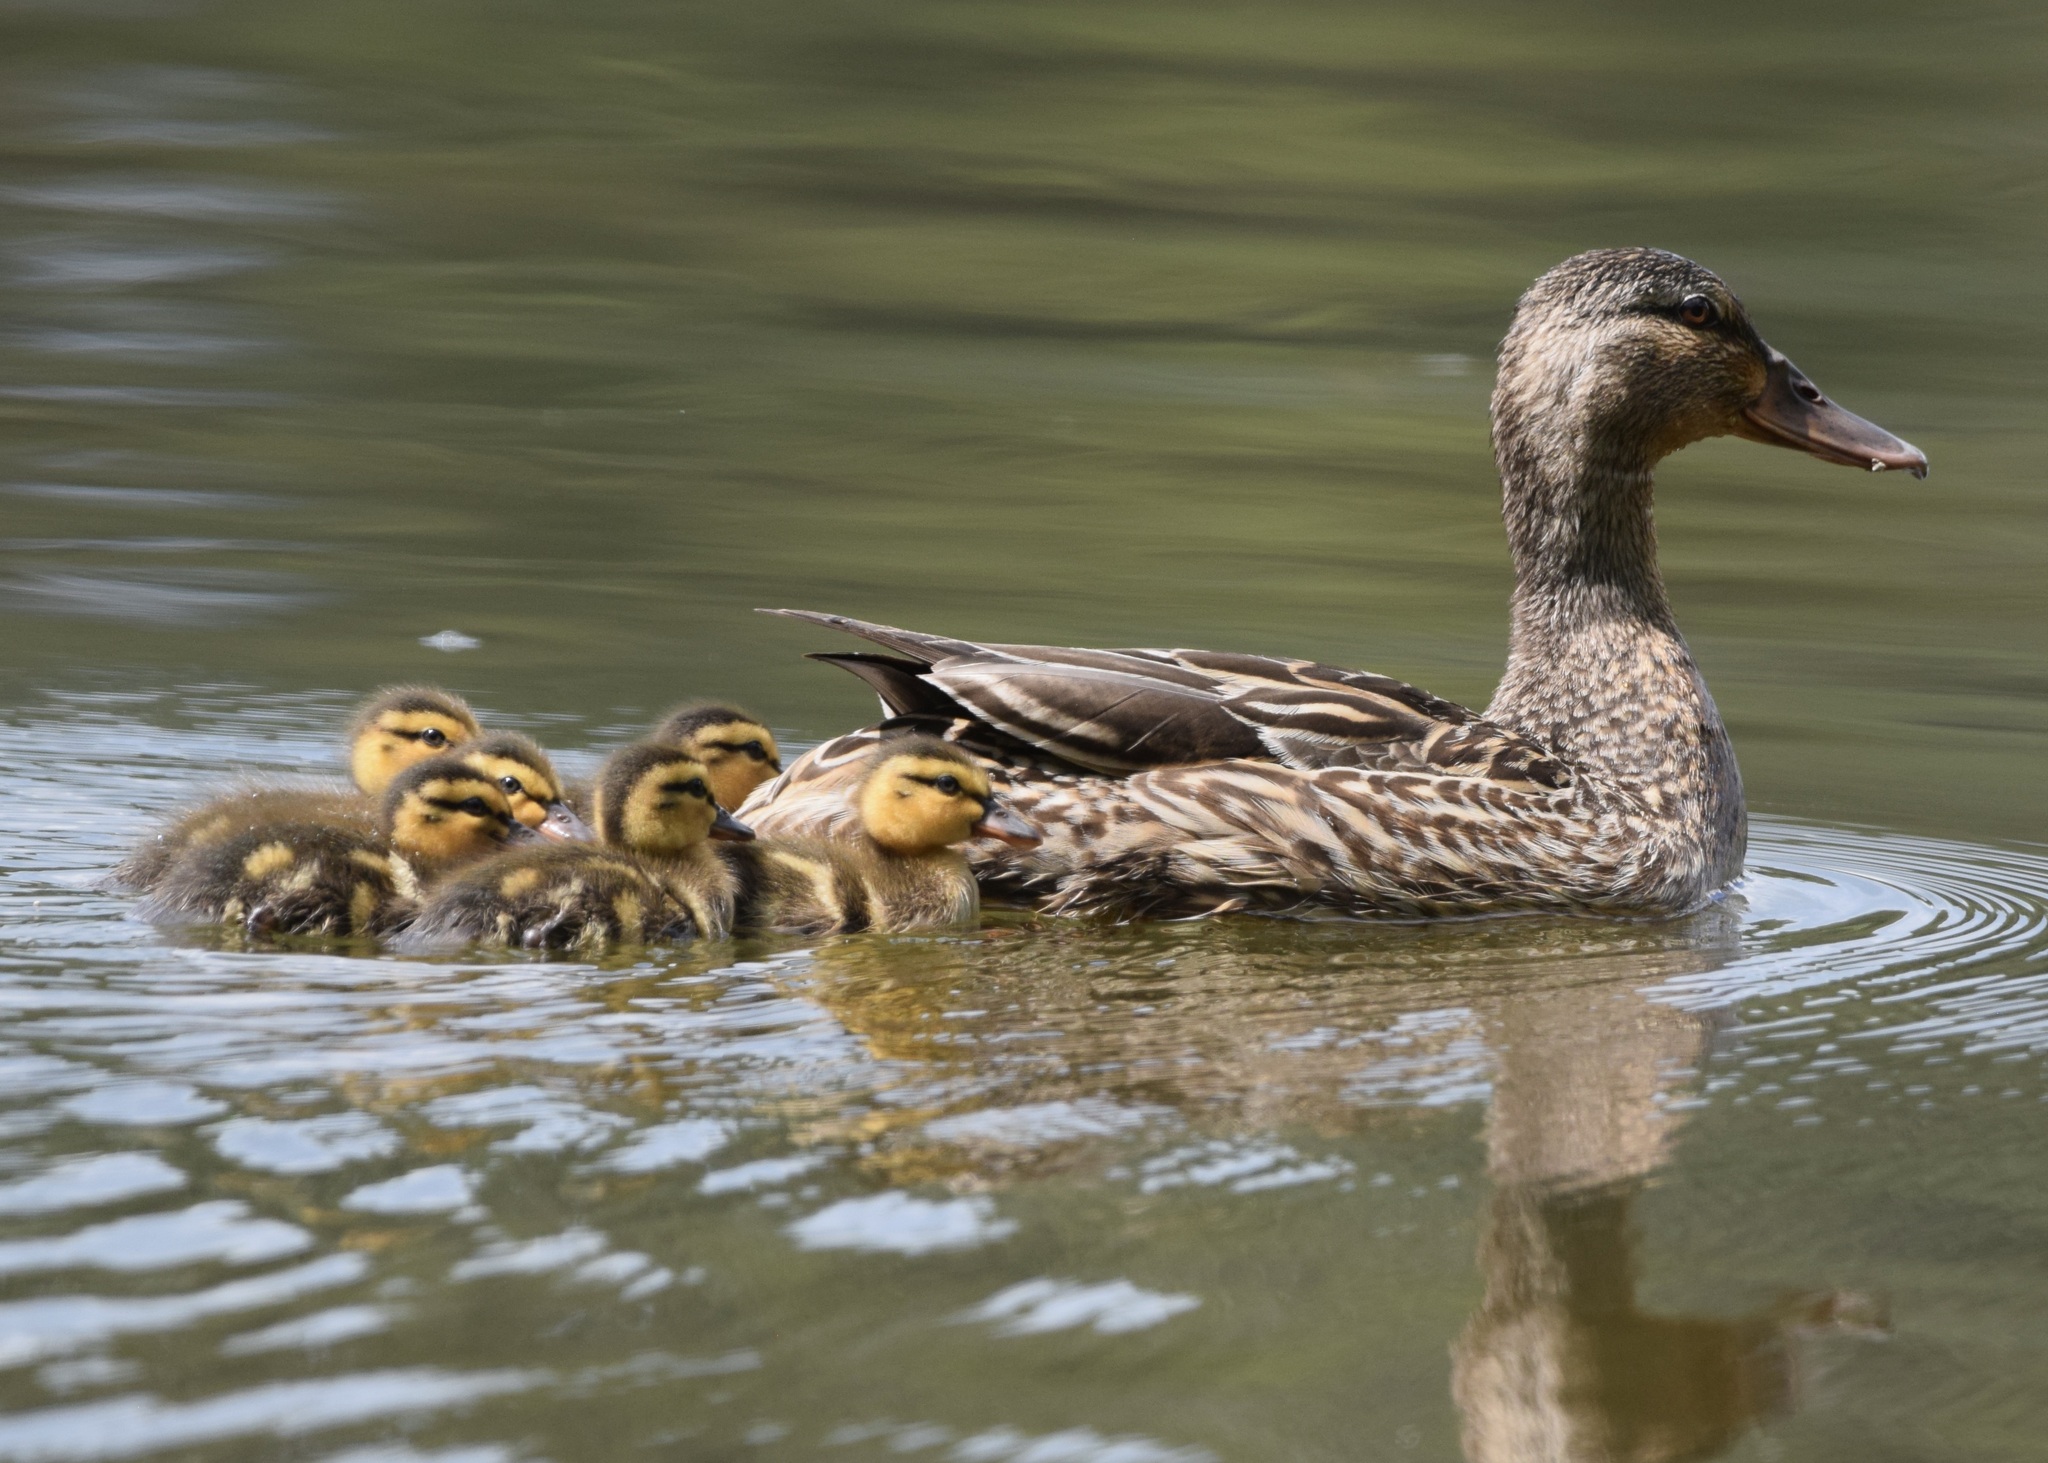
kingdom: Animalia
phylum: Chordata
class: Aves
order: Anseriformes
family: Anatidae
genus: Anas
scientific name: Anas platyrhynchos
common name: Mallard
